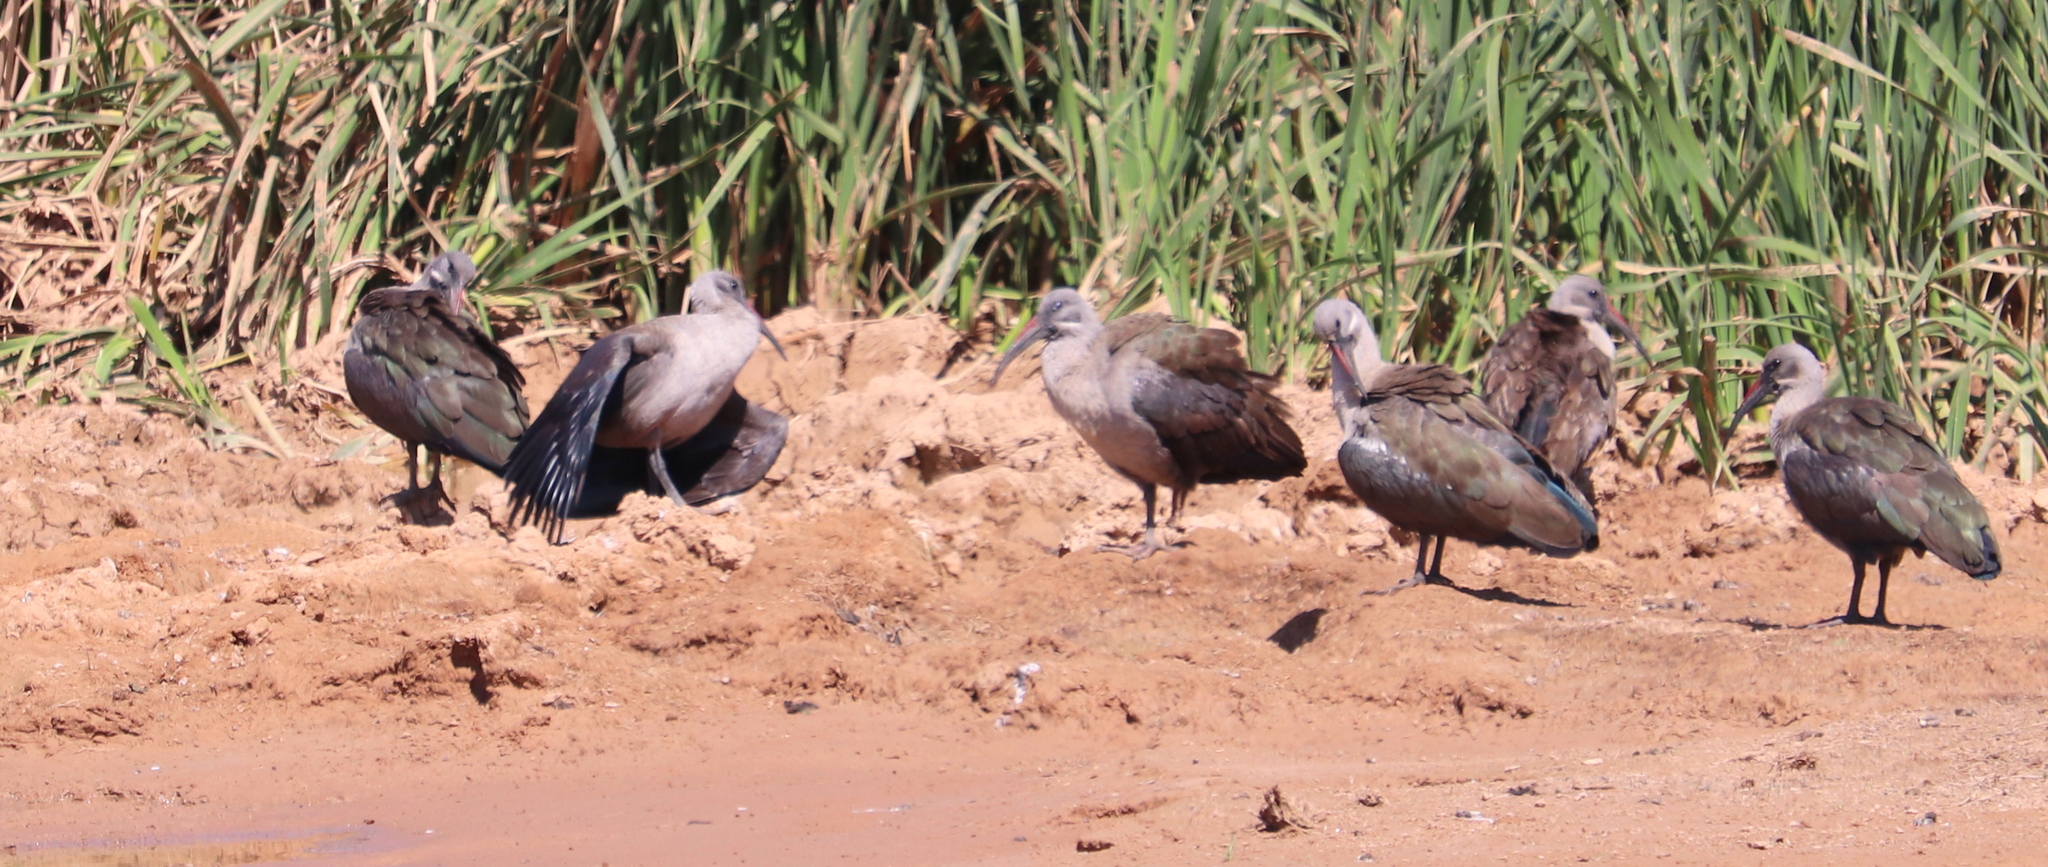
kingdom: Animalia
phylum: Chordata
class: Aves
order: Pelecaniformes
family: Threskiornithidae
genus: Bostrychia
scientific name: Bostrychia hagedash
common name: Hadada ibis
